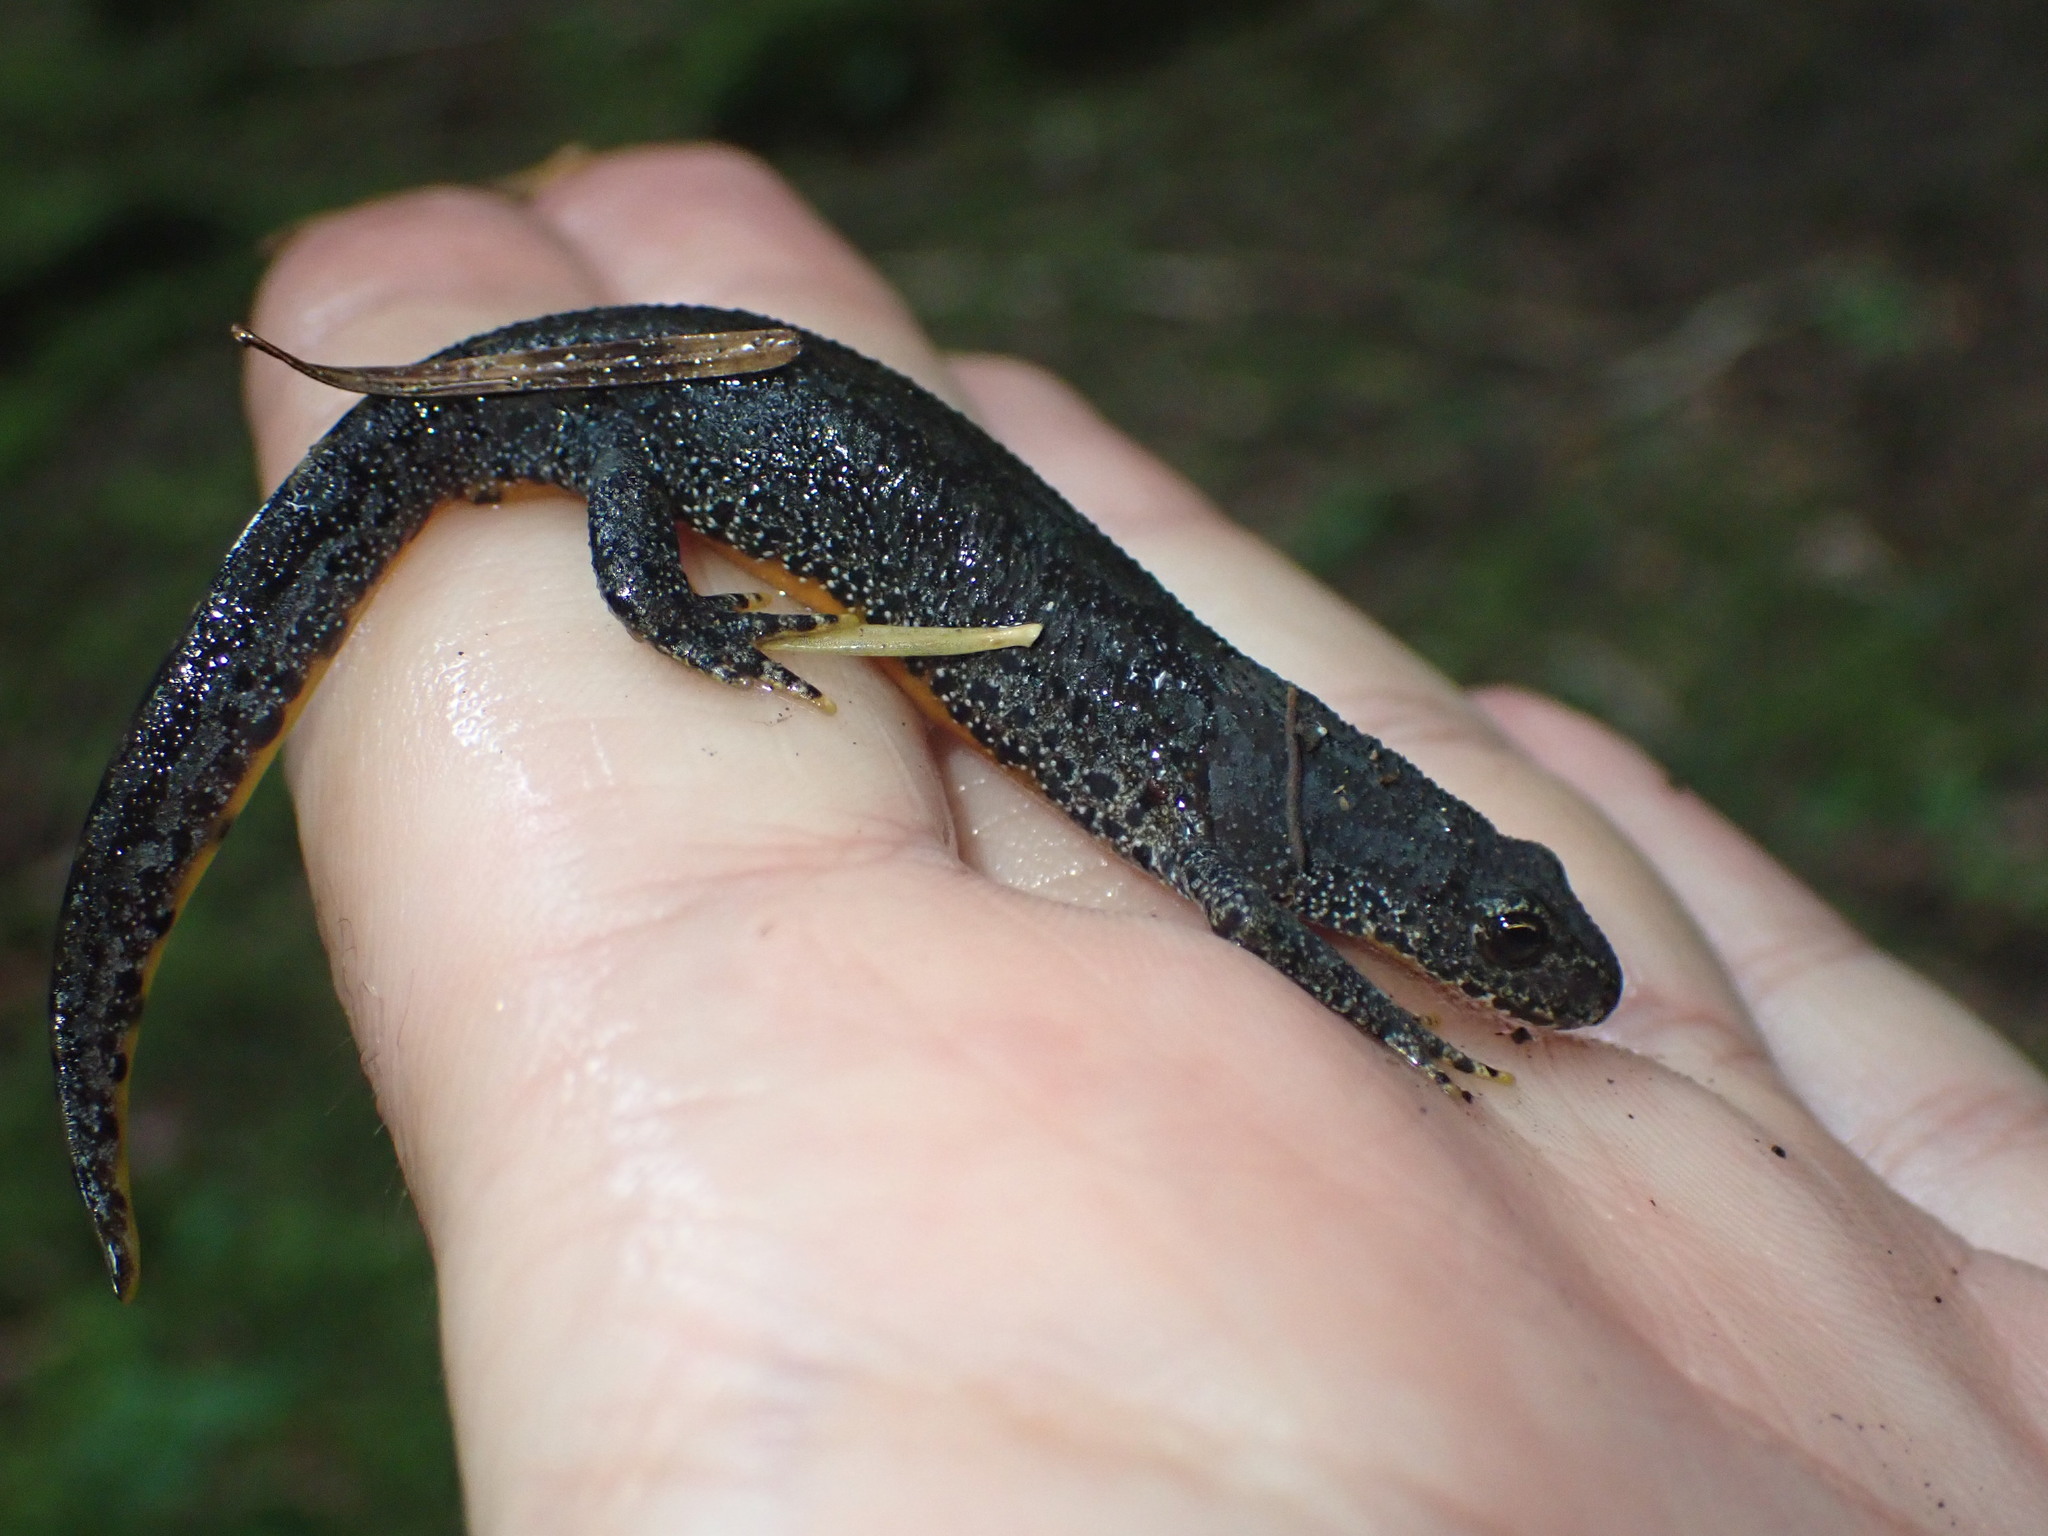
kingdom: Animalia
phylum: Chordata
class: Amphibia
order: Caudata
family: Salamandridae
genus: Ichthyosaura
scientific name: Ichthyosaura alpestris
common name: Alpine newt
